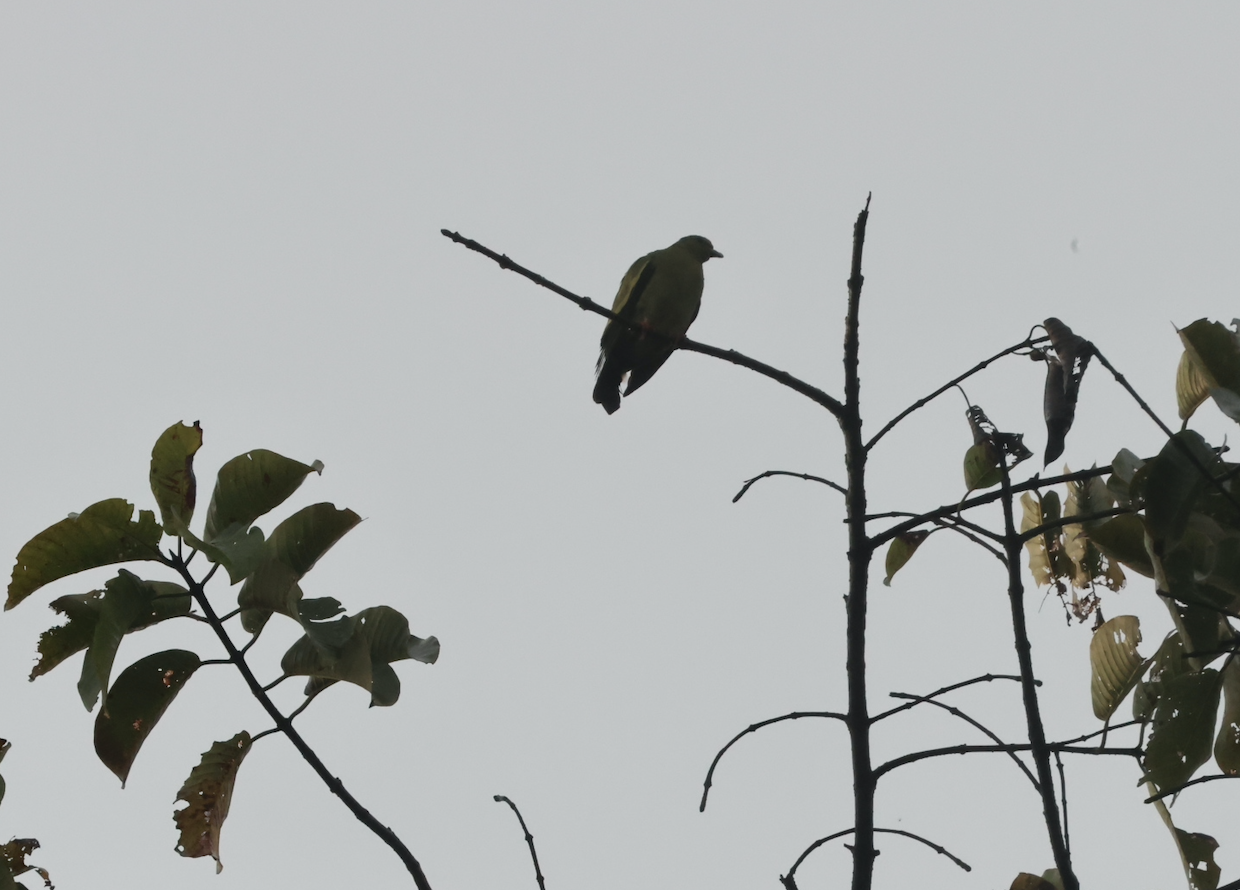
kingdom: Animalia
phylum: Chordata
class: Aves
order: Columbiformes
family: Columbidae
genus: Treron
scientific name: Treron vernans
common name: Pink-necked green pigeon
